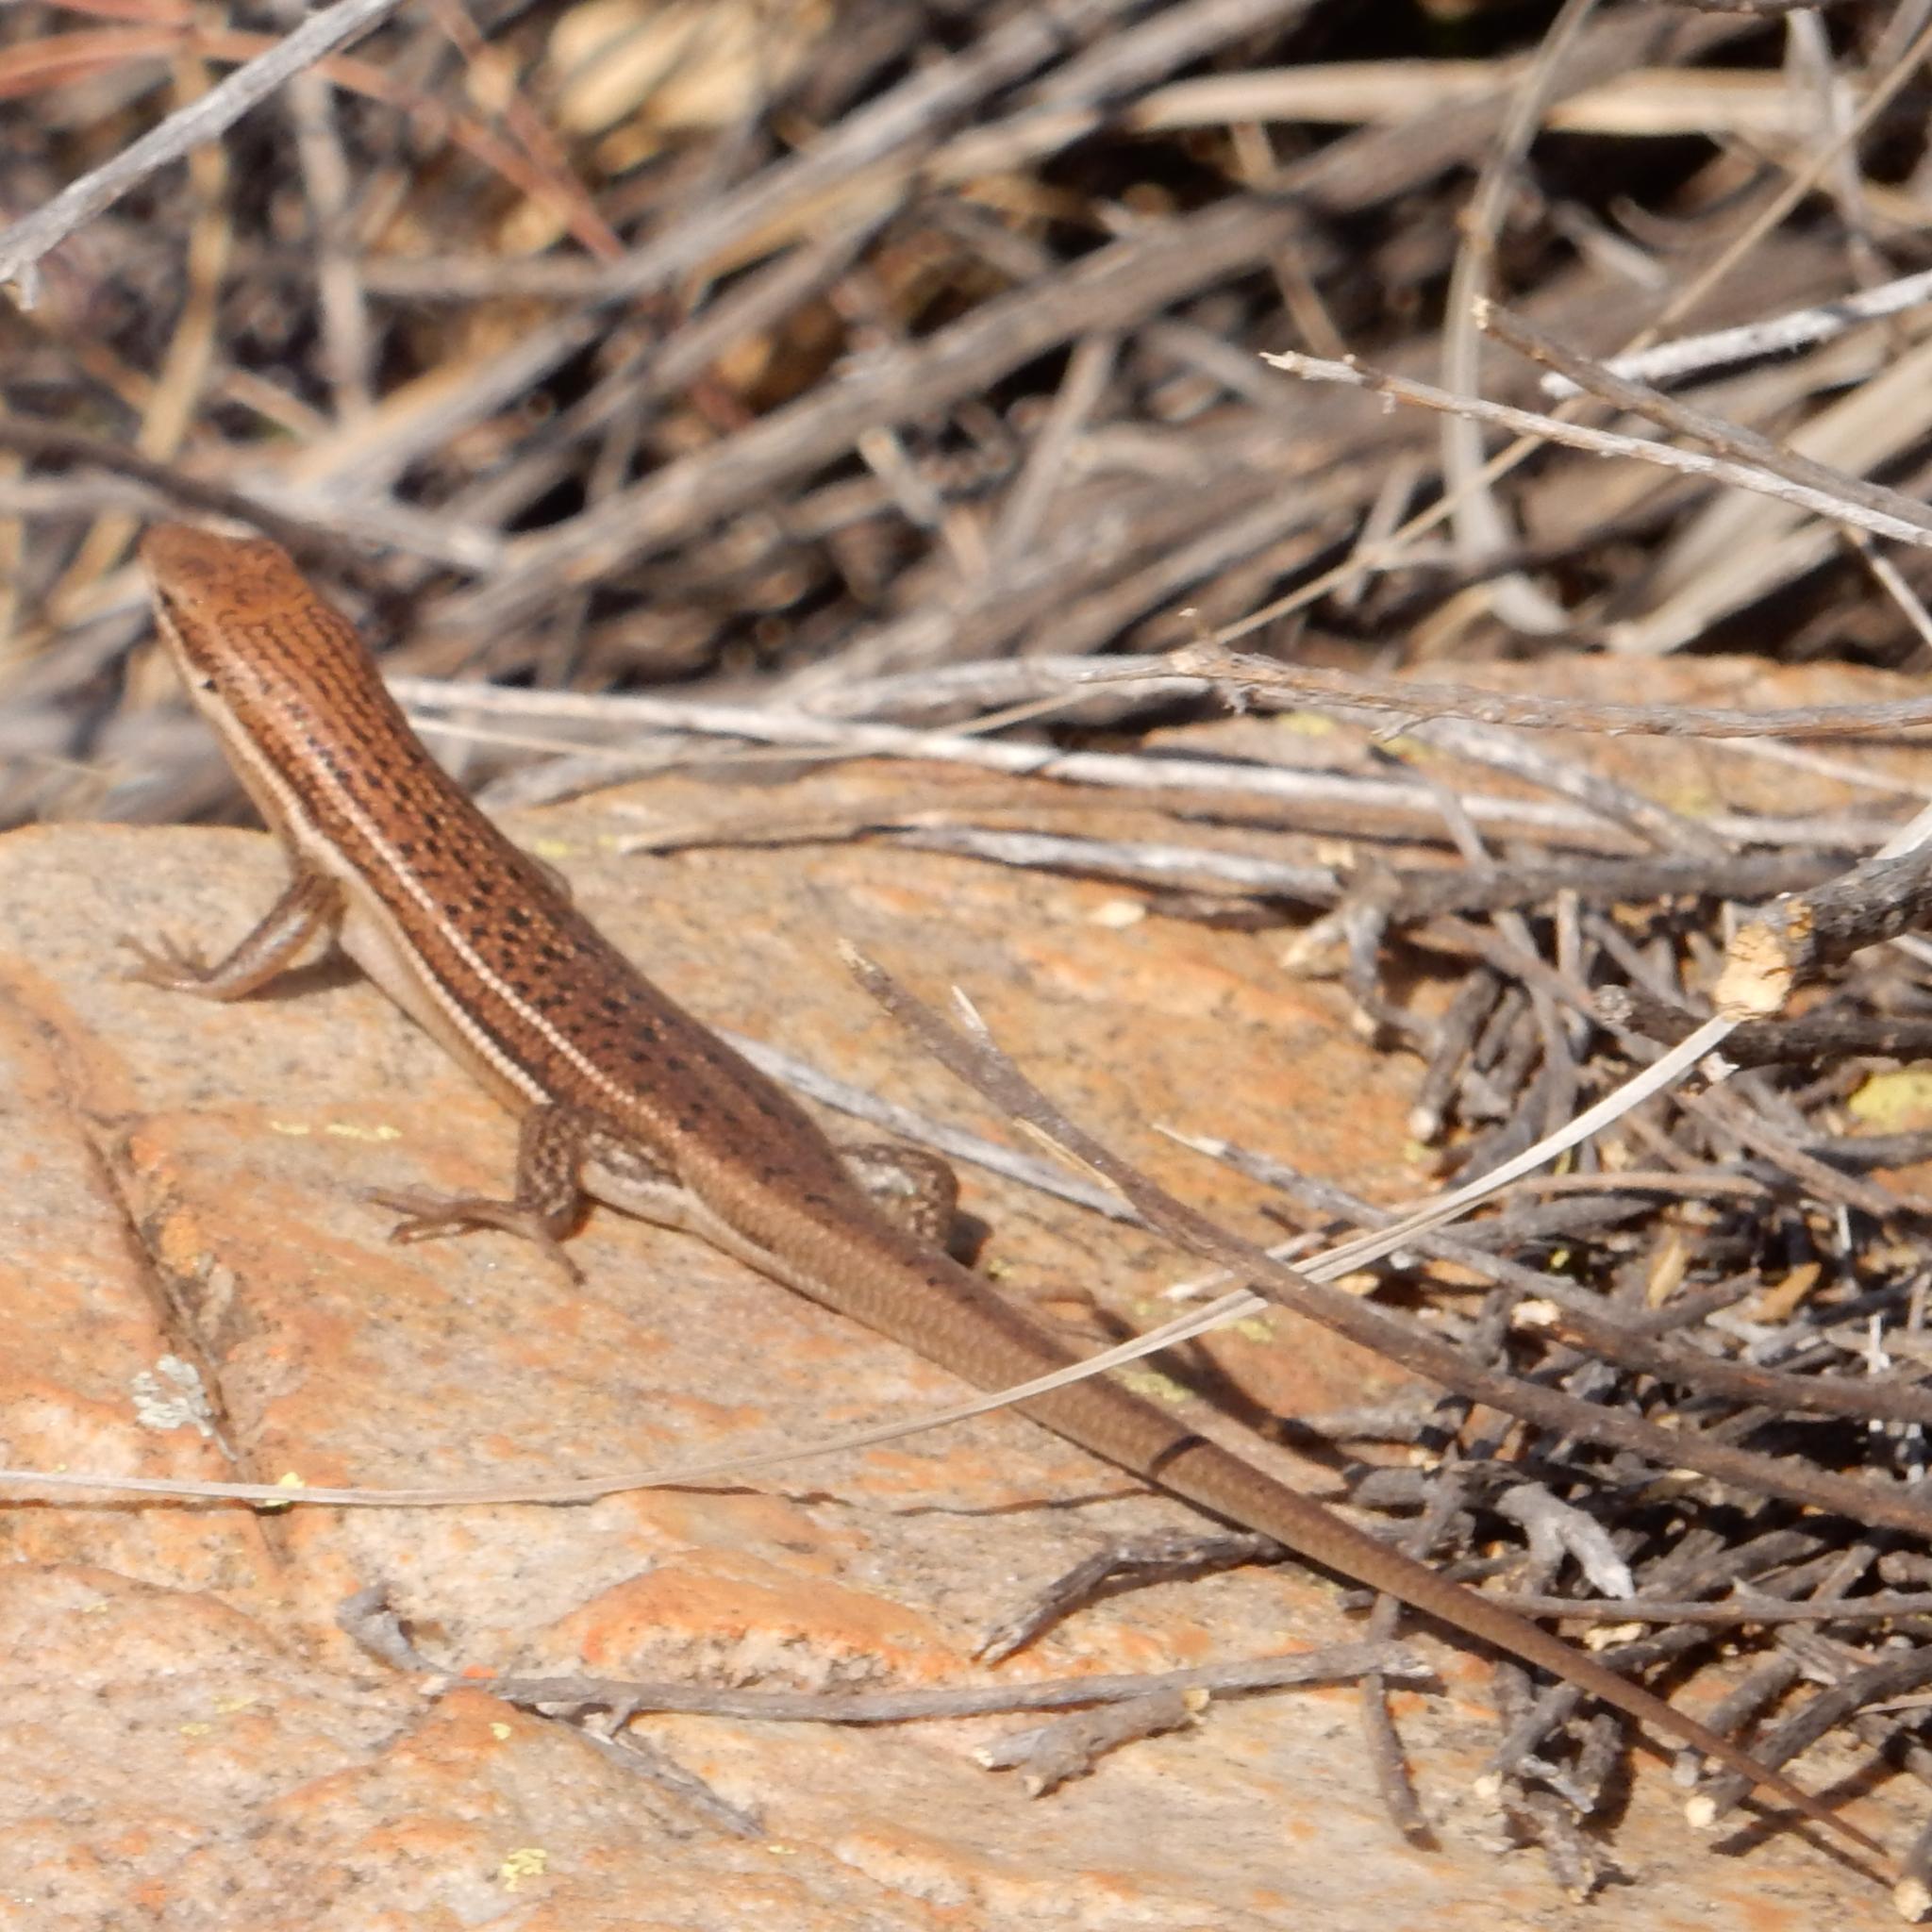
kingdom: Animalia
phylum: Chordata
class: Squamata
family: Scincidae
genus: Trachylepis
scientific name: Trachylepis varia
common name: Eastern variable skink
